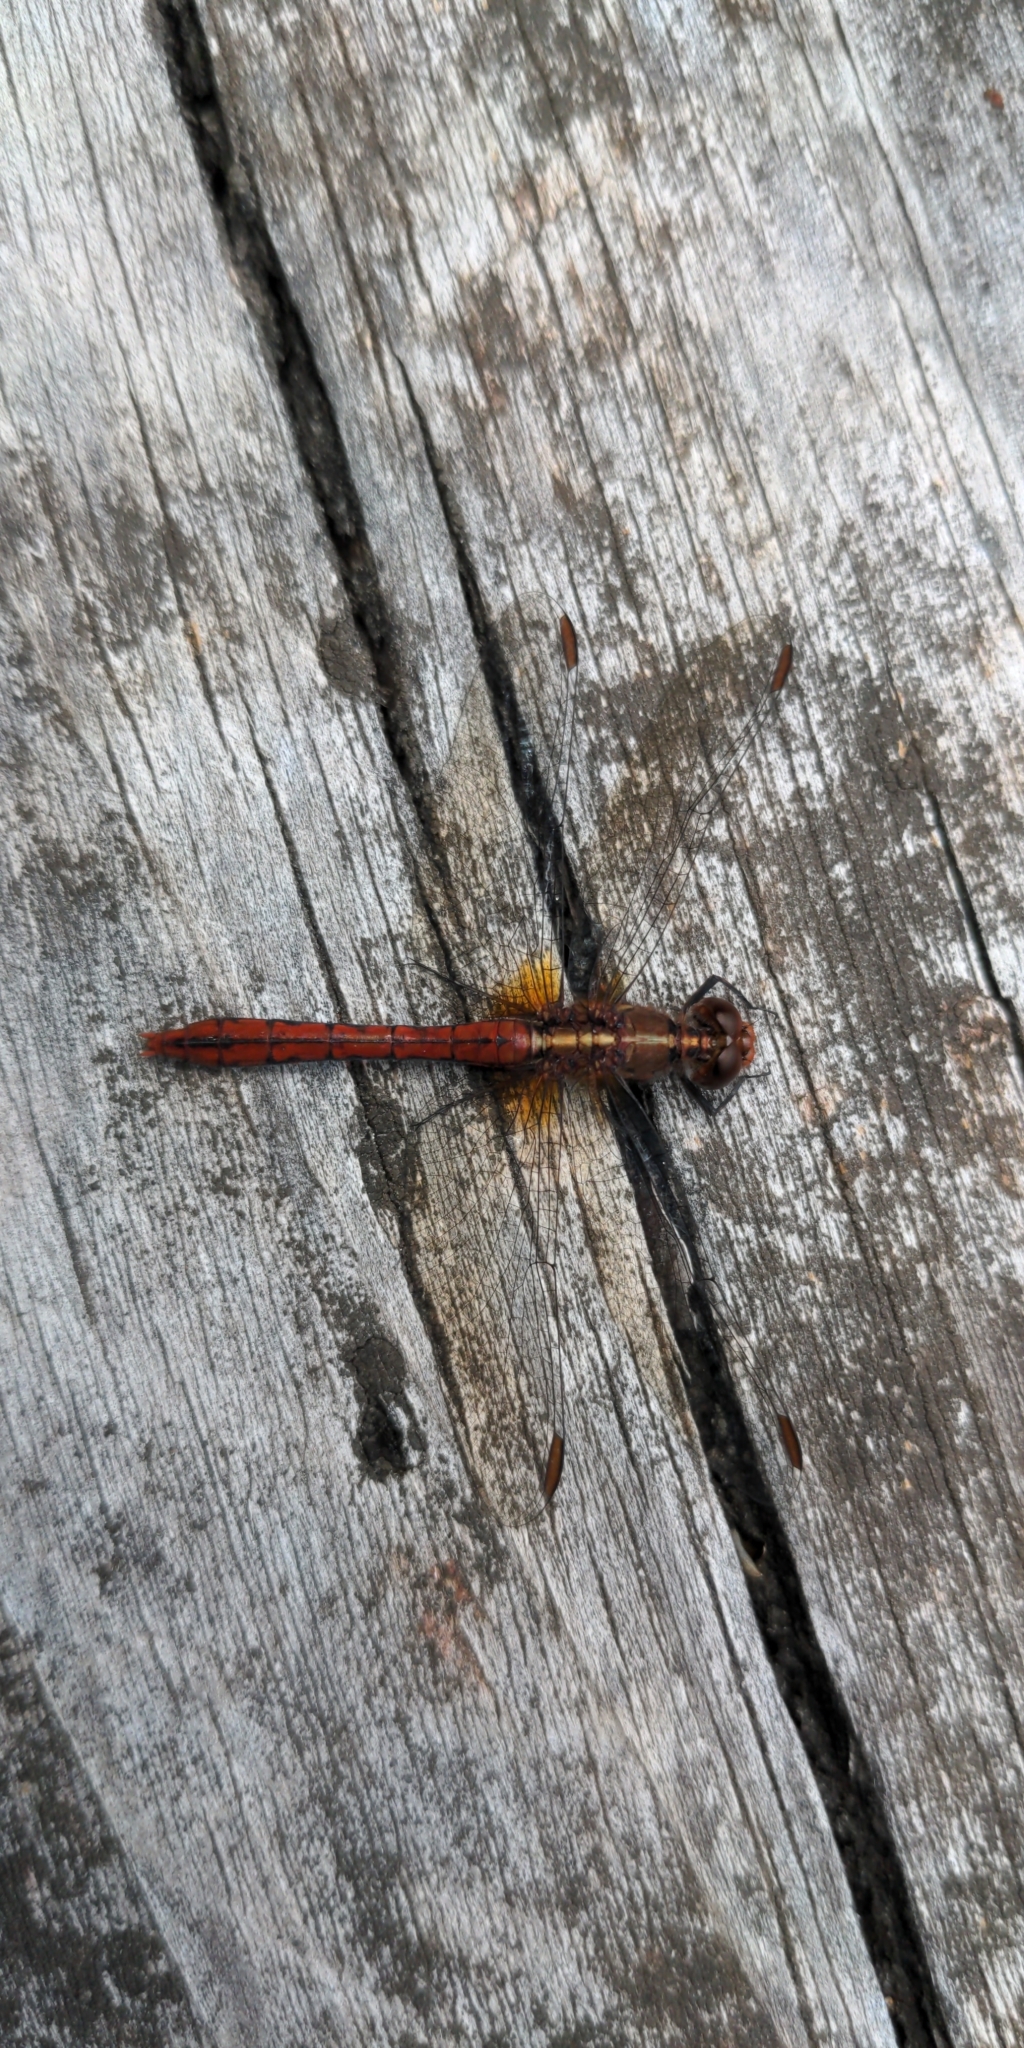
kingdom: Animalia
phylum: Arthropoda
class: Insecta
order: Odonata
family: Libellulidae
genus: Diplacodes
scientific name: Diplacodes bipunctata
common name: Red percher dragonfly
